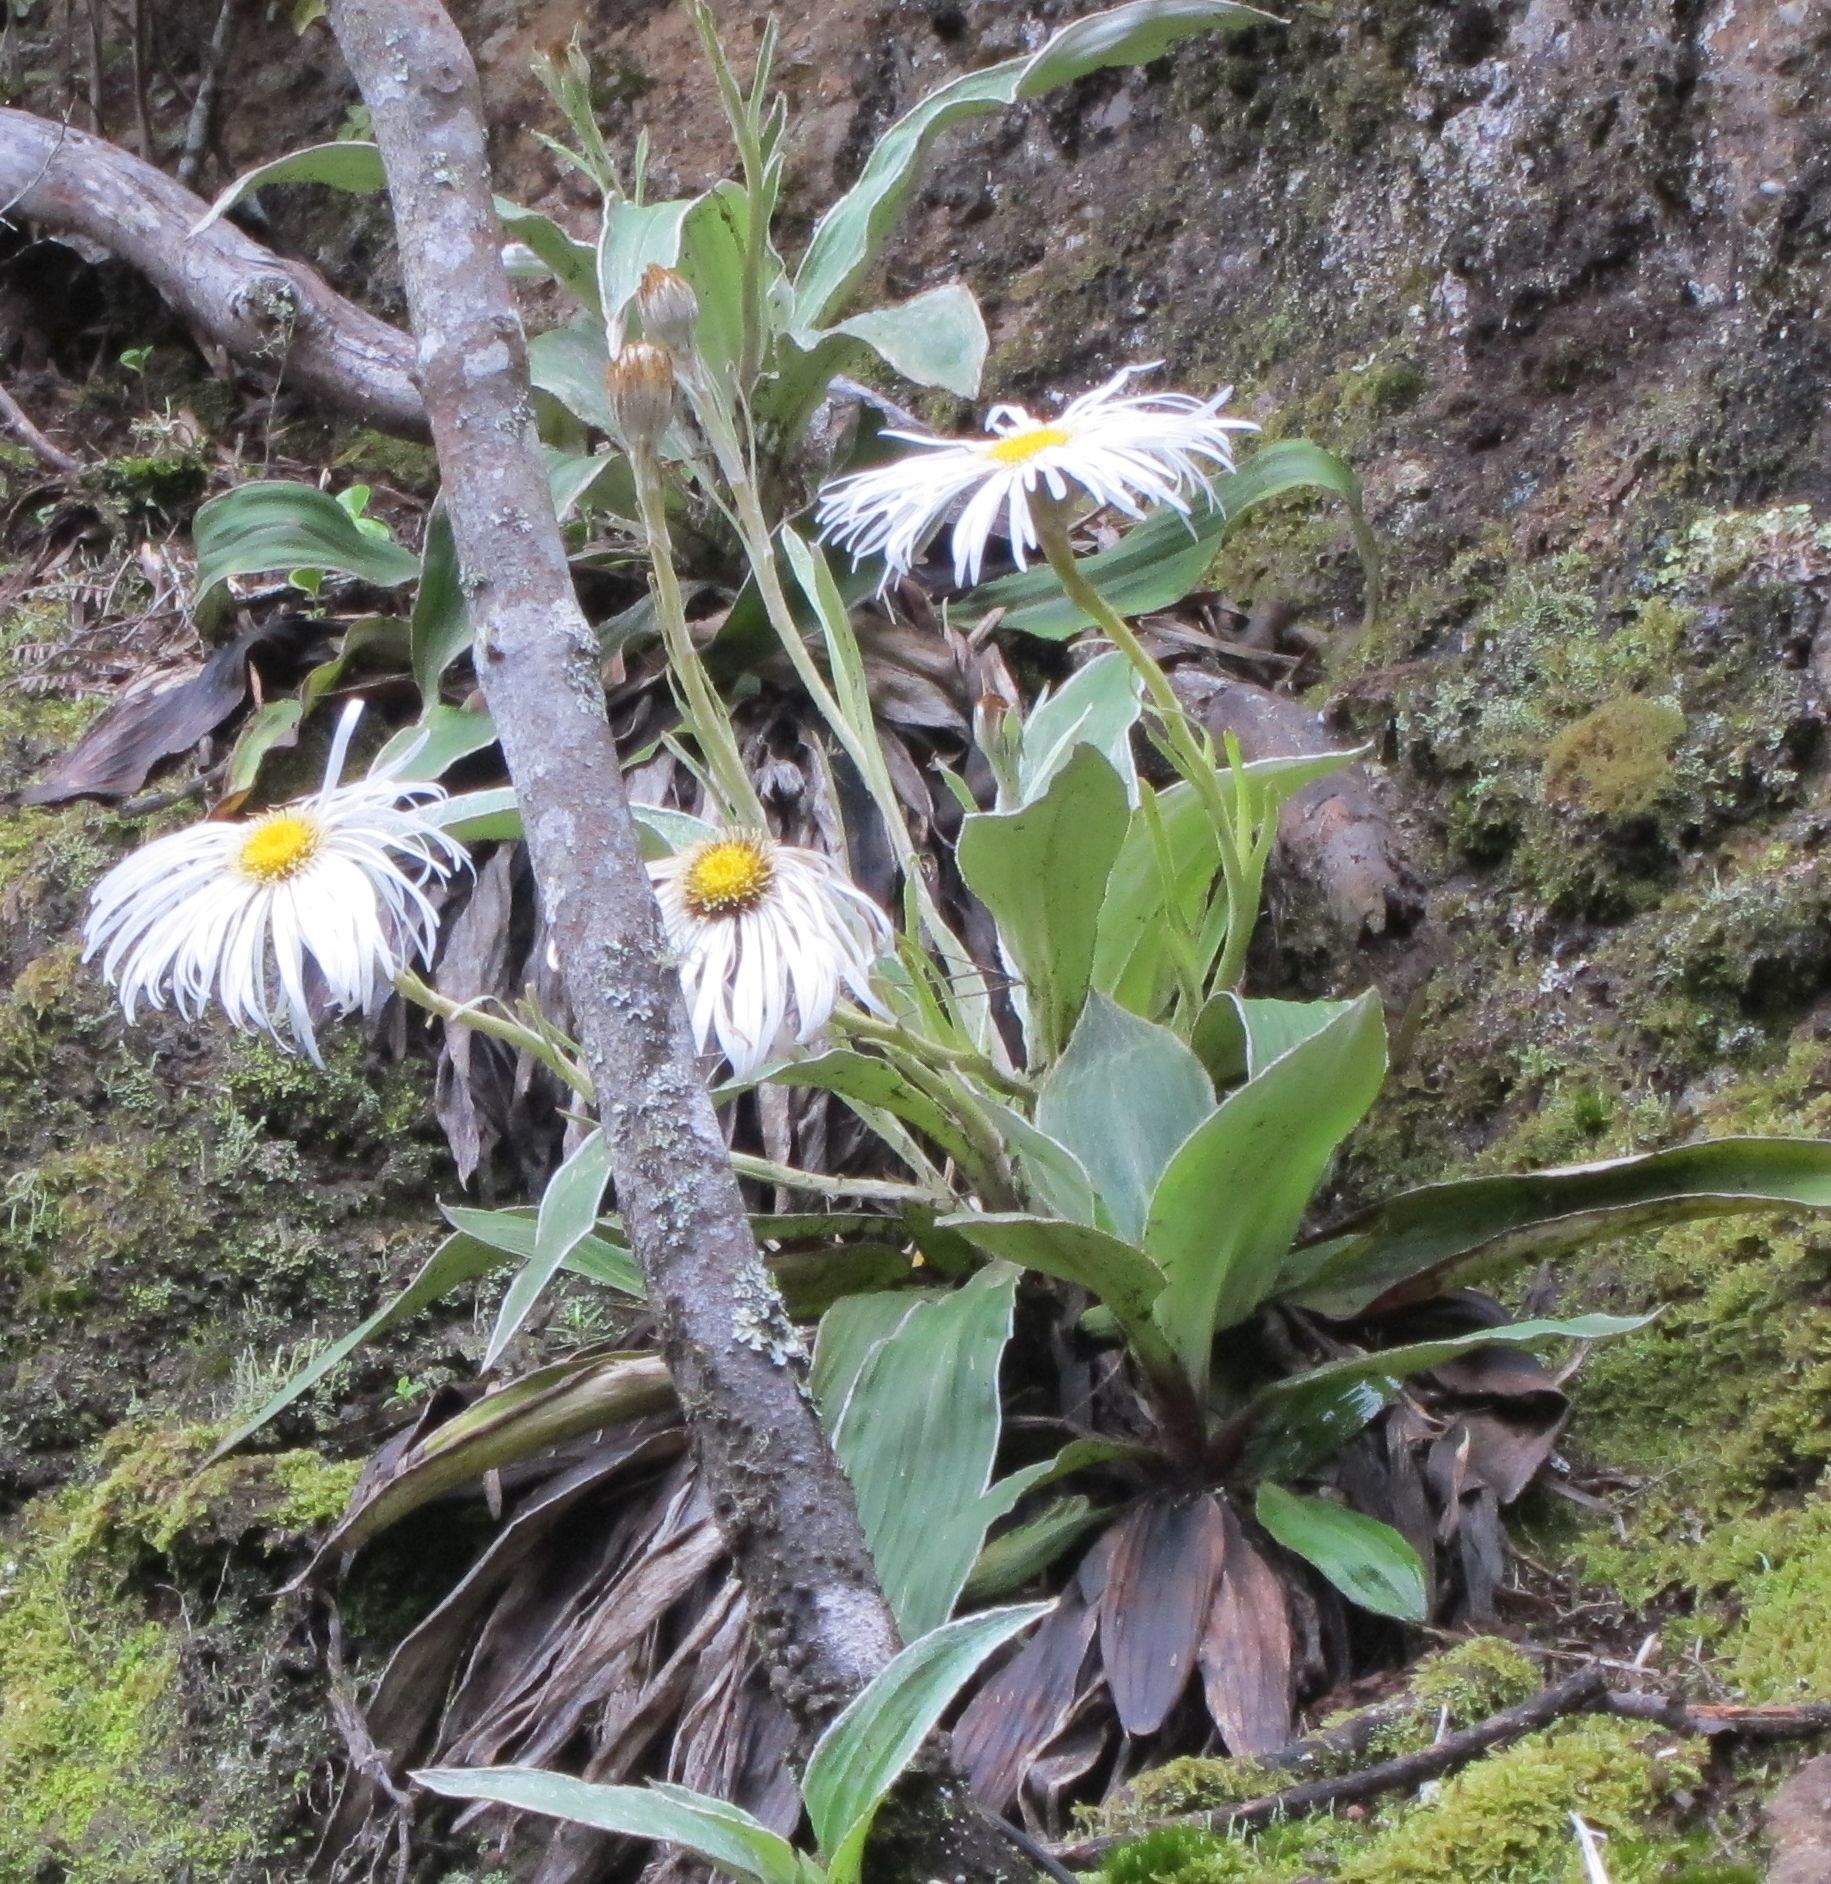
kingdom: Plantae
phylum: Tracheophyta
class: Magnoliopsida
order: Asterales
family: Asteraceae
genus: Celmisia
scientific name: Celmisia hookeri
